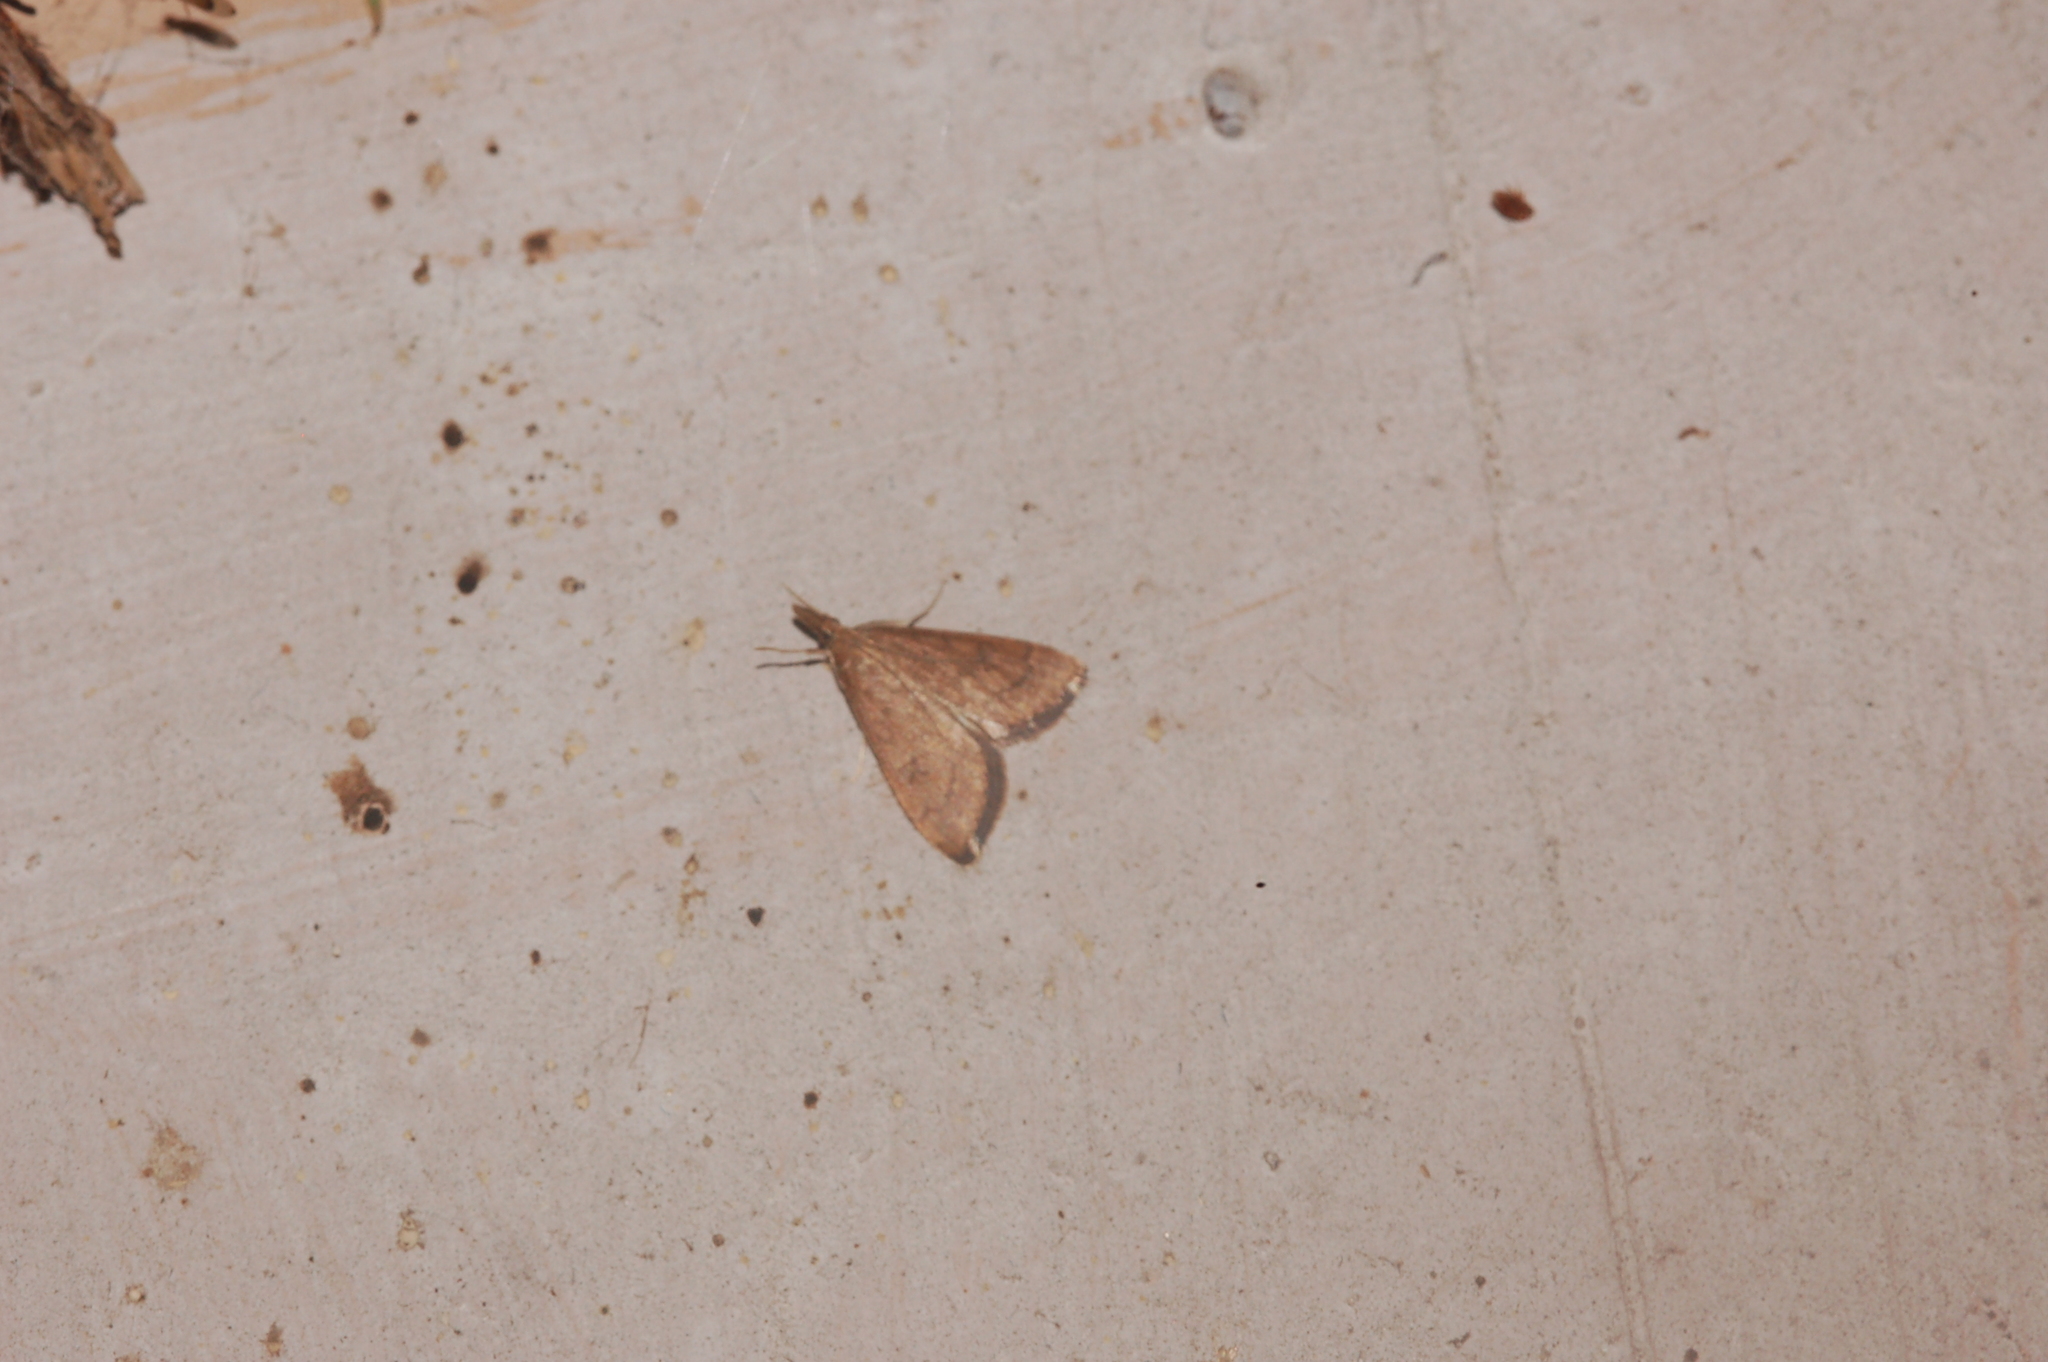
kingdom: Animalia
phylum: Arthropoda
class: Insecta
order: Lepidoptera
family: Crambidae
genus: Udea
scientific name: Udea rubigalis
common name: Celery leaftier moth
